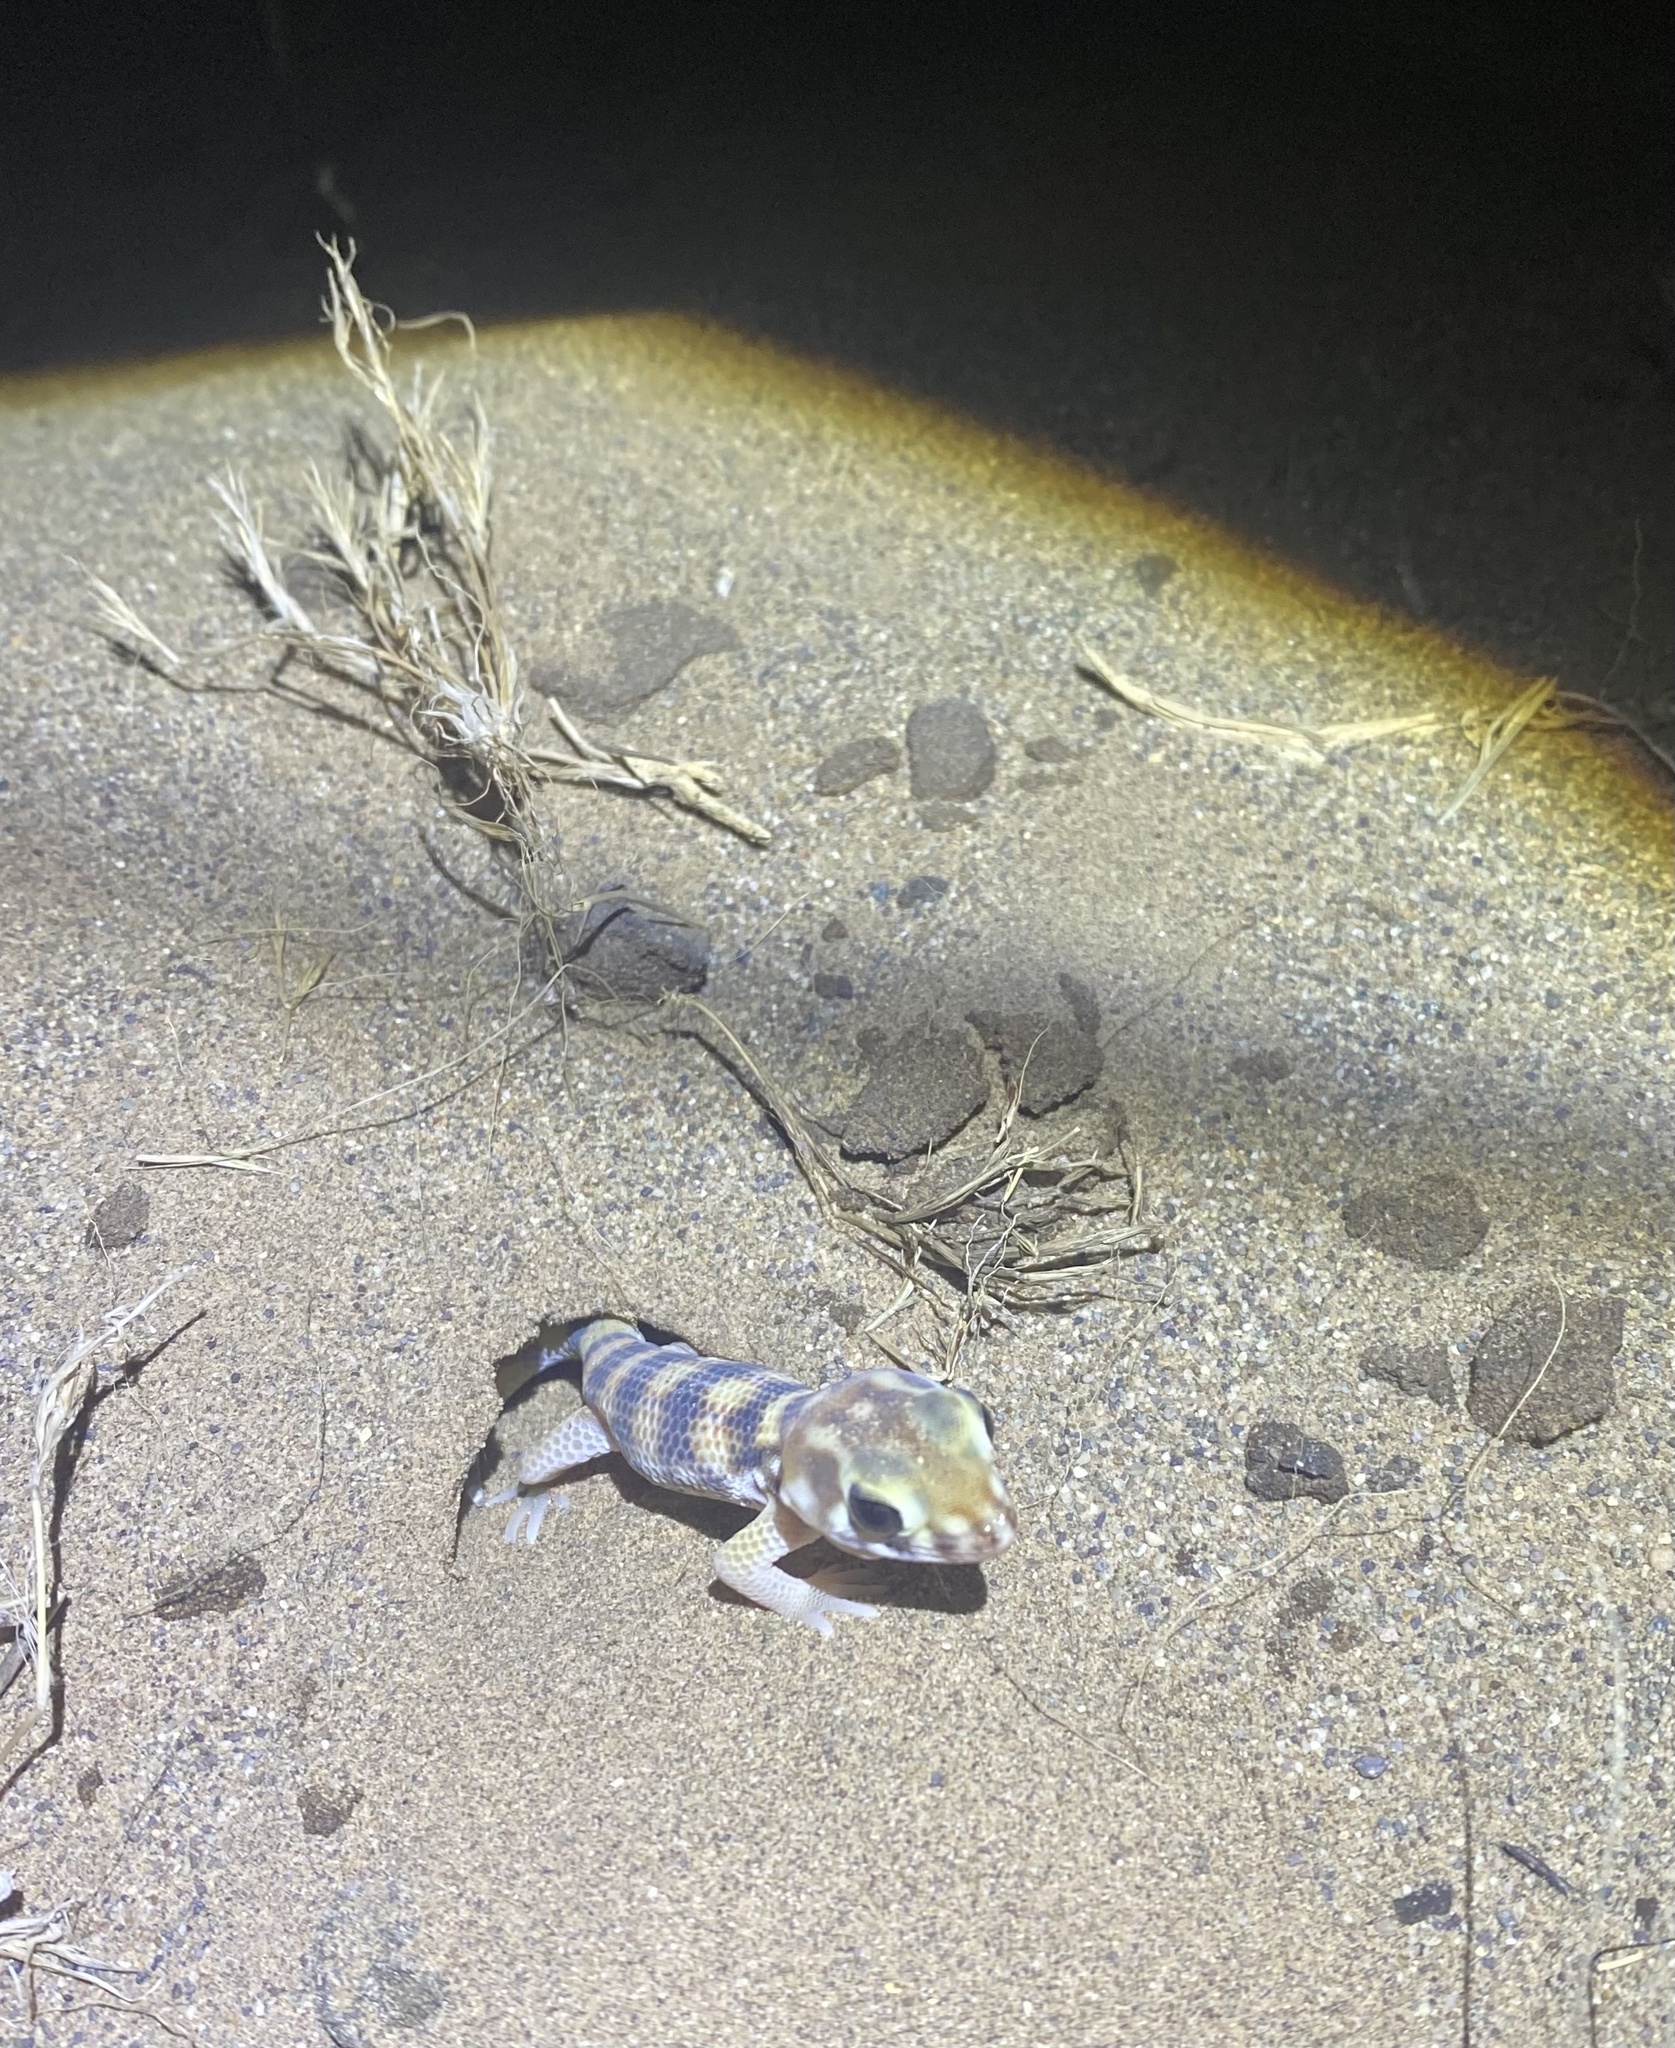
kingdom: Animalia
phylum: Chordata
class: Squamata
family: Sphaerodactylidae
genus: Teratoscincus
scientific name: Teratoscincus keyserlingii
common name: Frog-eyed gecko
